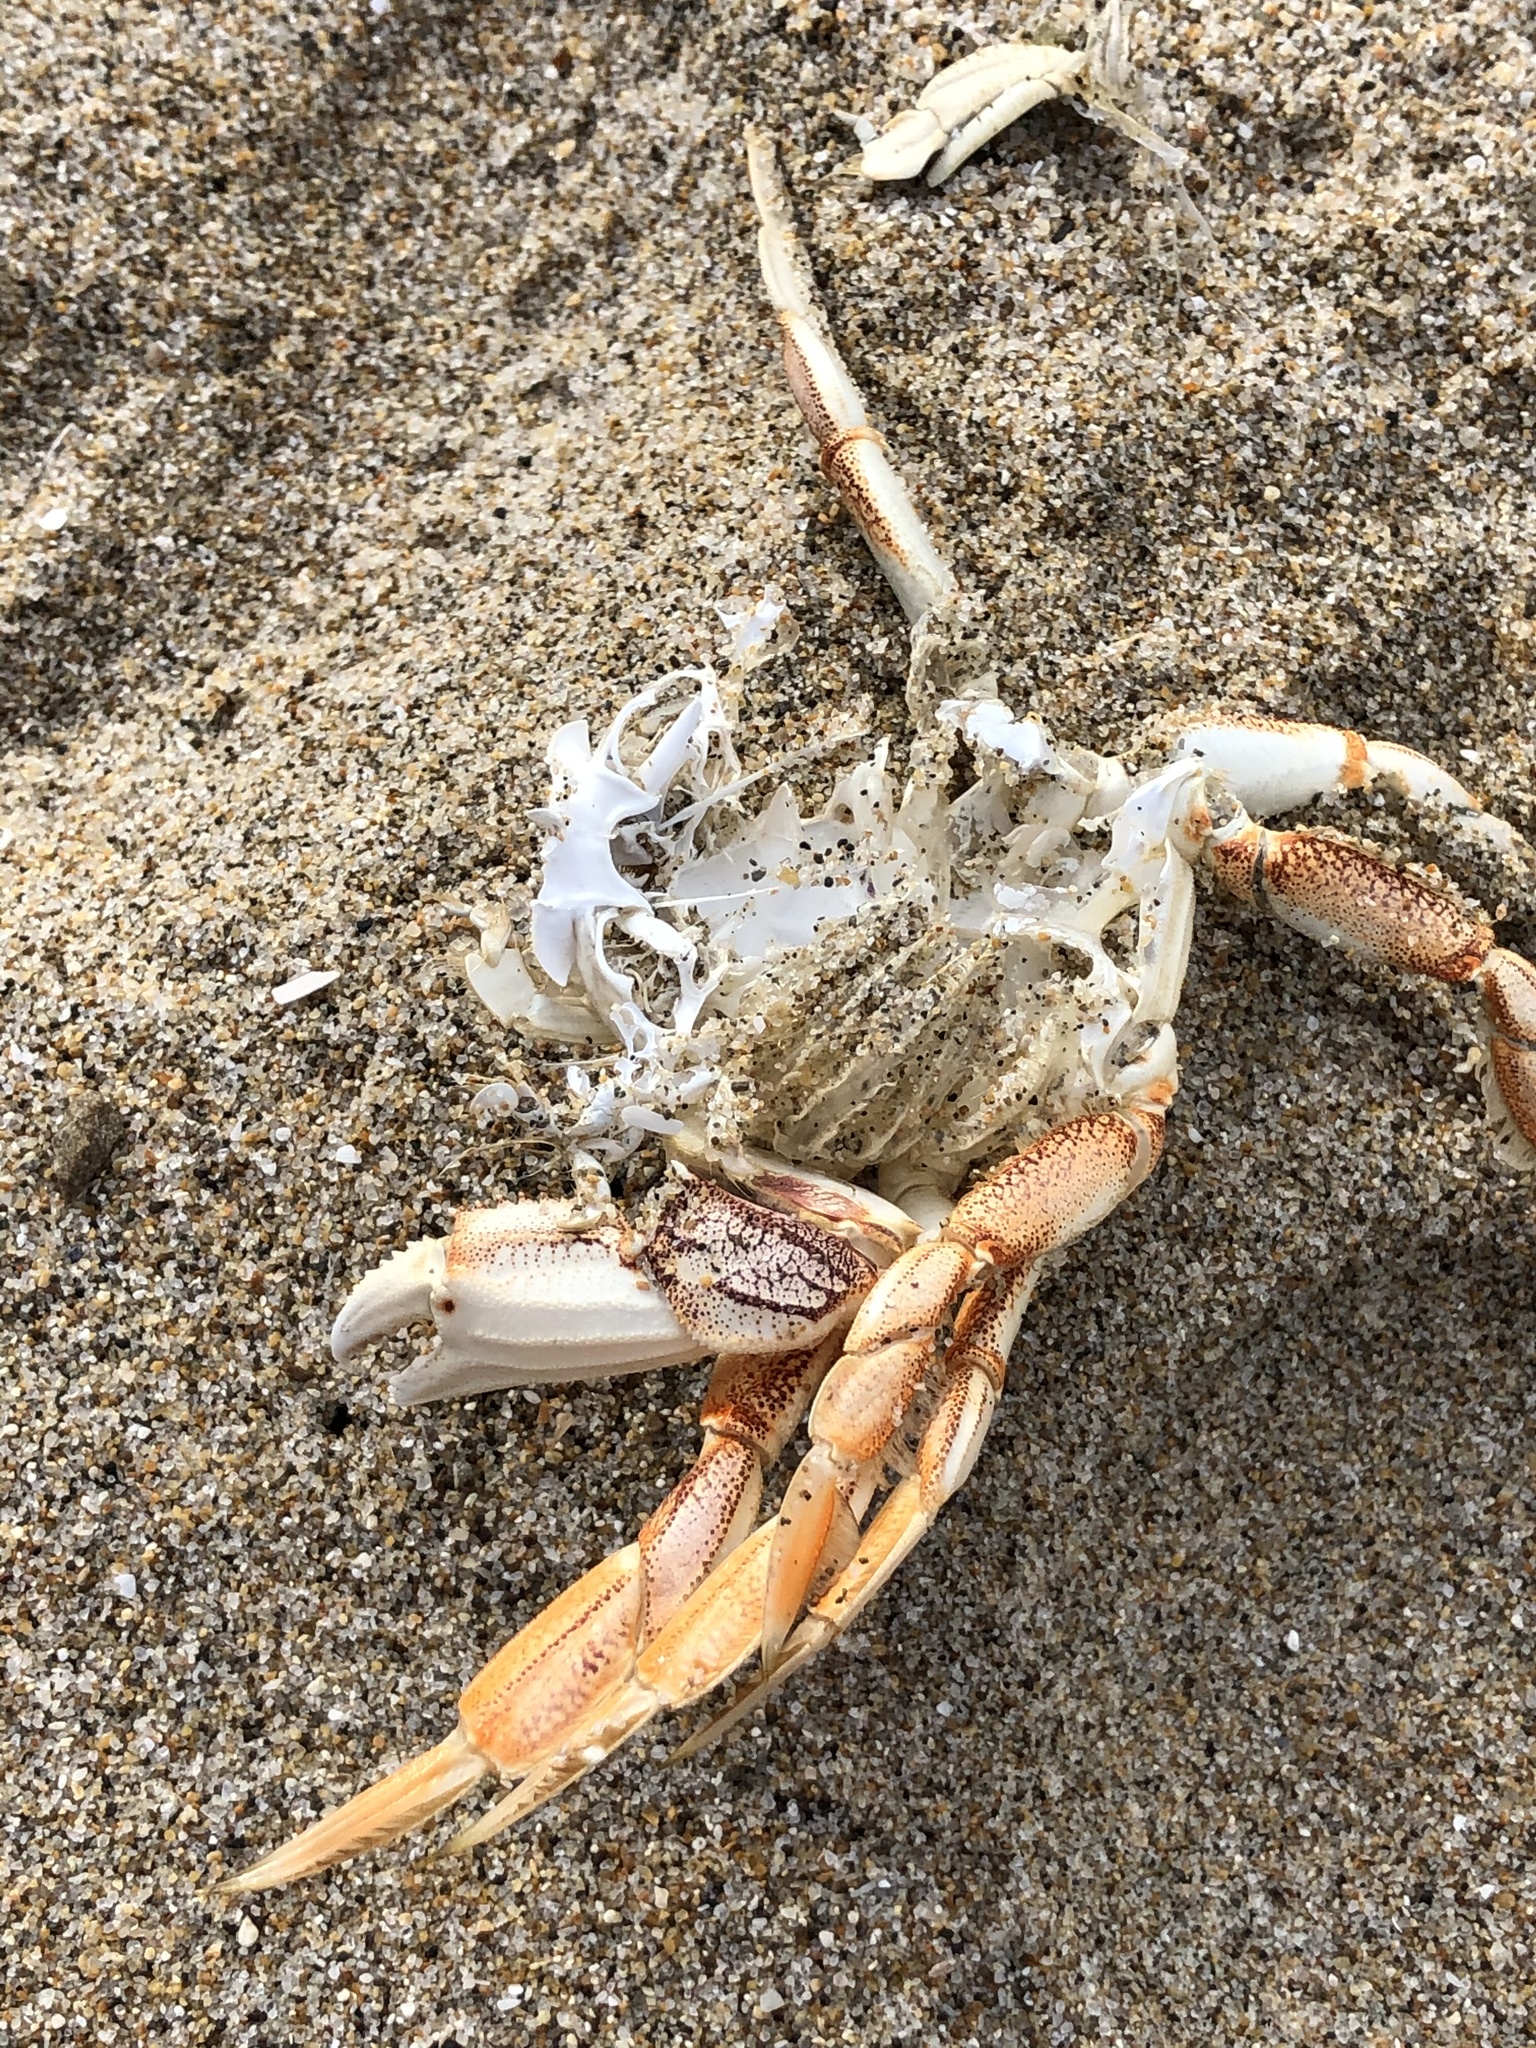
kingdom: Animalia
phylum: Arthropoda
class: Malacostraca
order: Decapoda
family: Cancridae
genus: Metacarcinus
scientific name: Metacarcinus magister
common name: Californian crab
